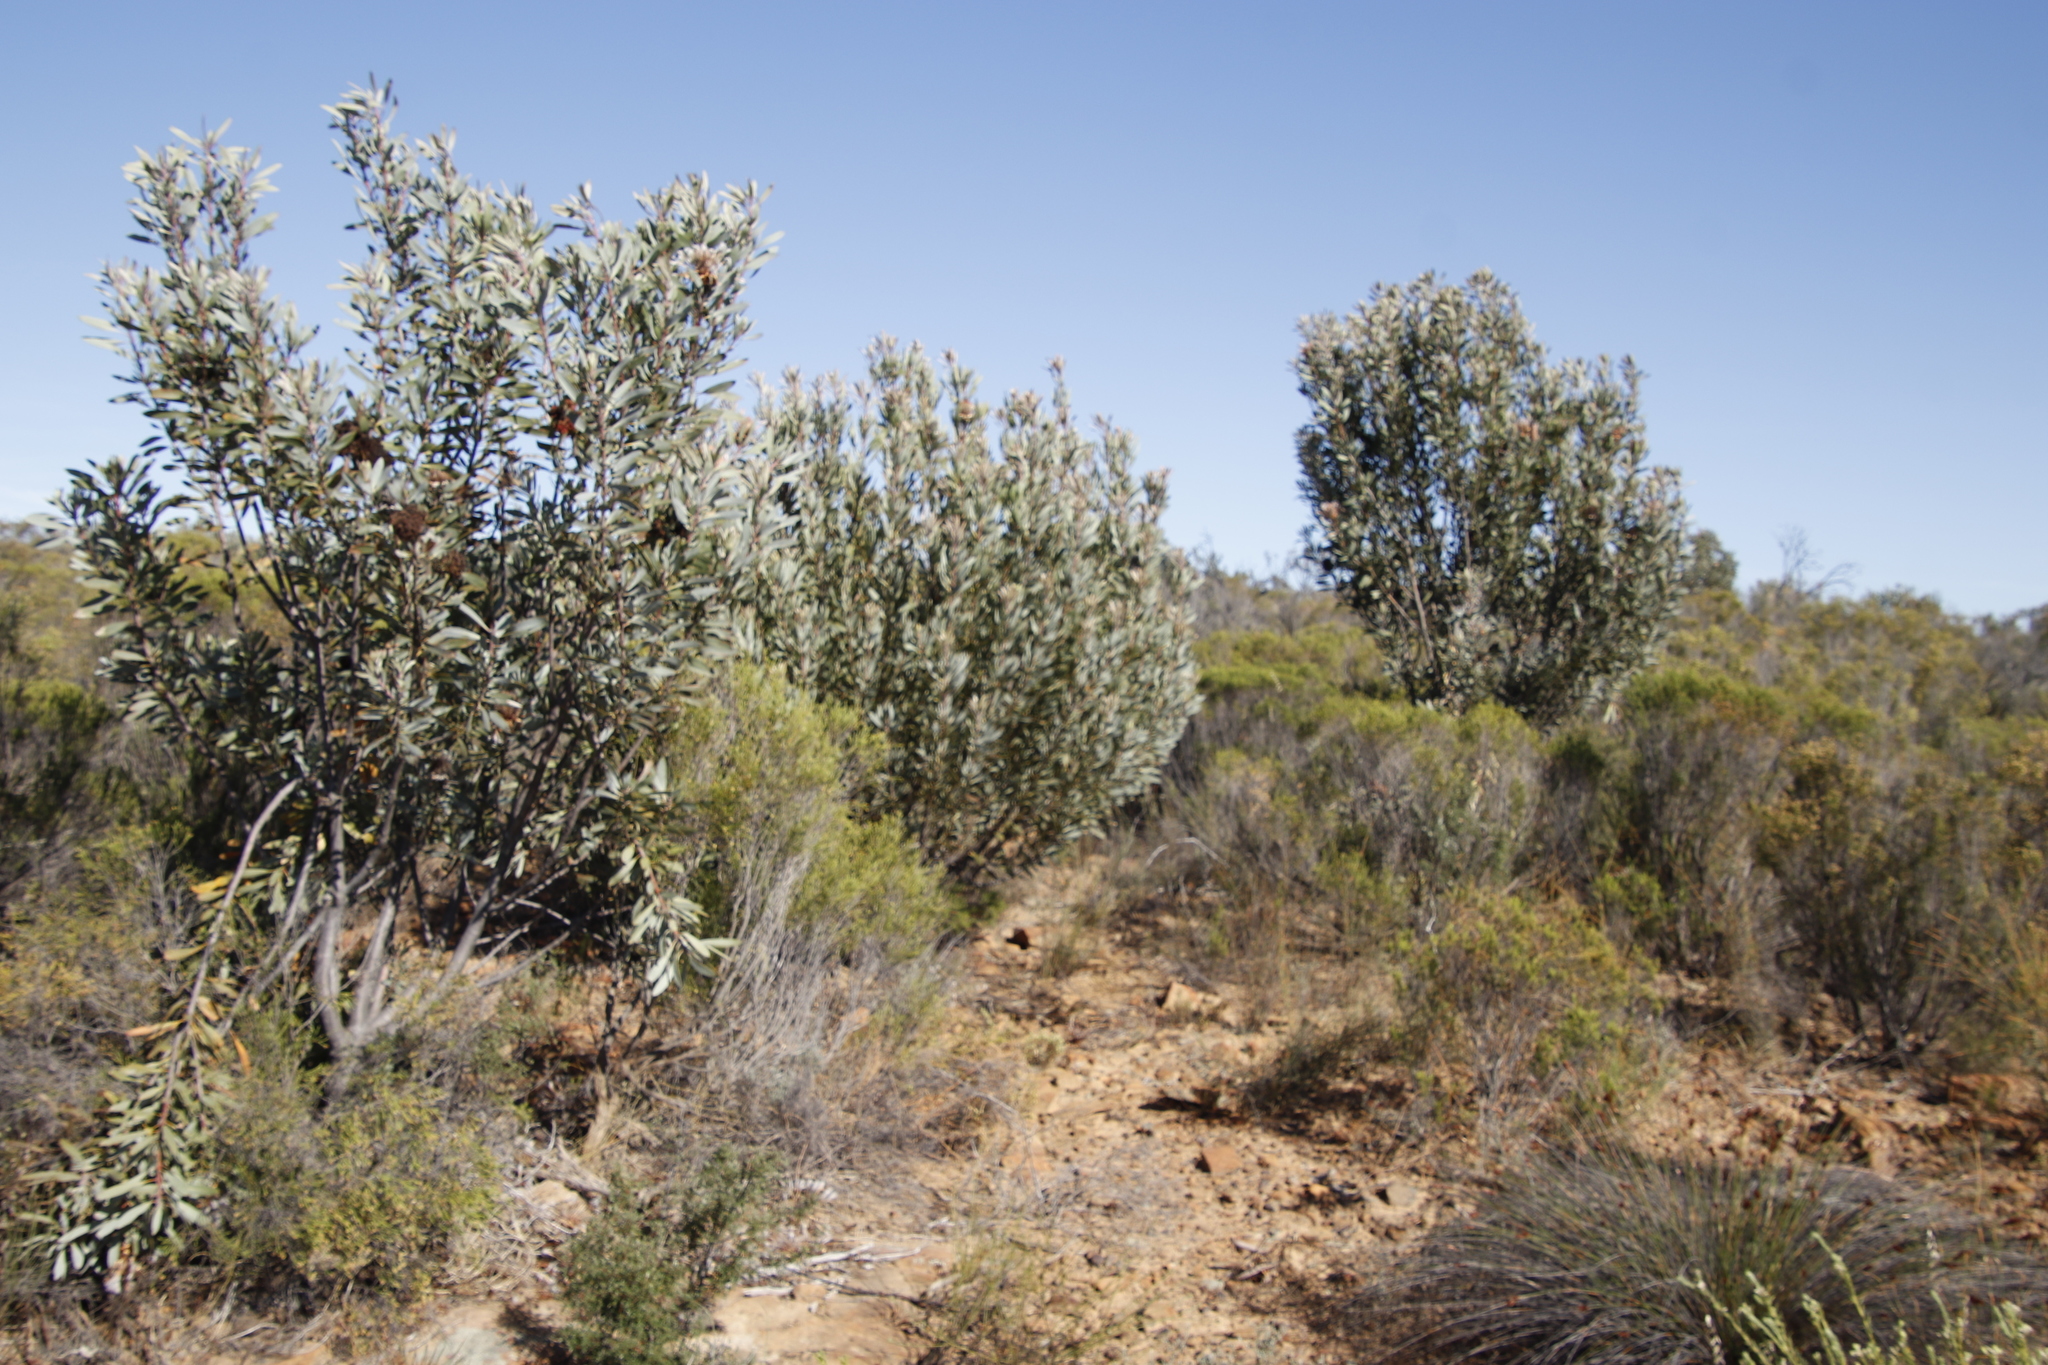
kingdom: Plantae
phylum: Tracheophyta
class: Magnoliopsida
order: Proteales
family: Proteaceae
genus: Protea
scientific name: Protea laurifolia
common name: Grey-leaf sugarbsh
